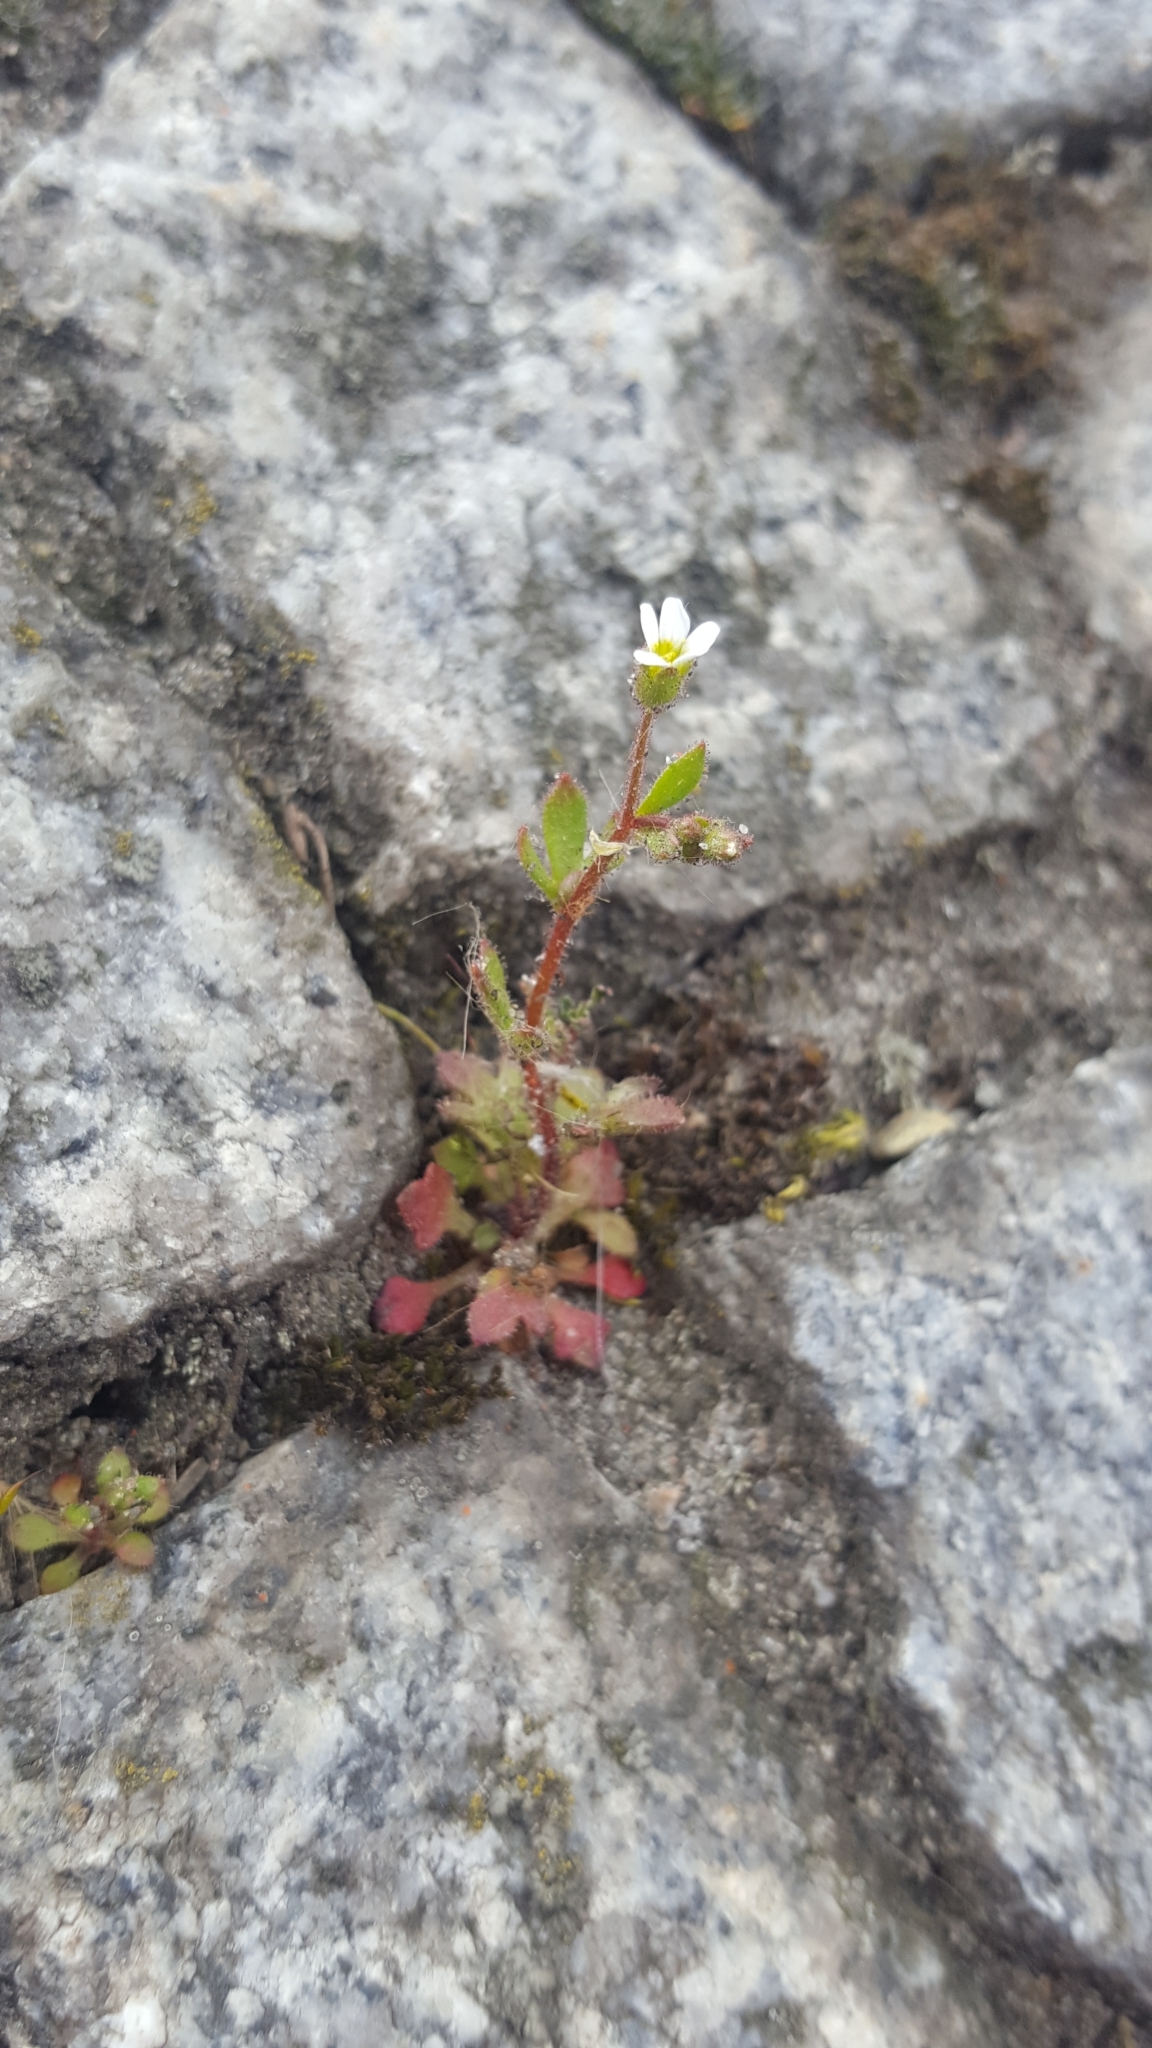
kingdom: Plantae
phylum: Tracheophyta
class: Magnoliopsida
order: Saxifragales
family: Saxifragaceae
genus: Saxifraga
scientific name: Saxifraga tridactylites
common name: Rue-leaved saxifrage
